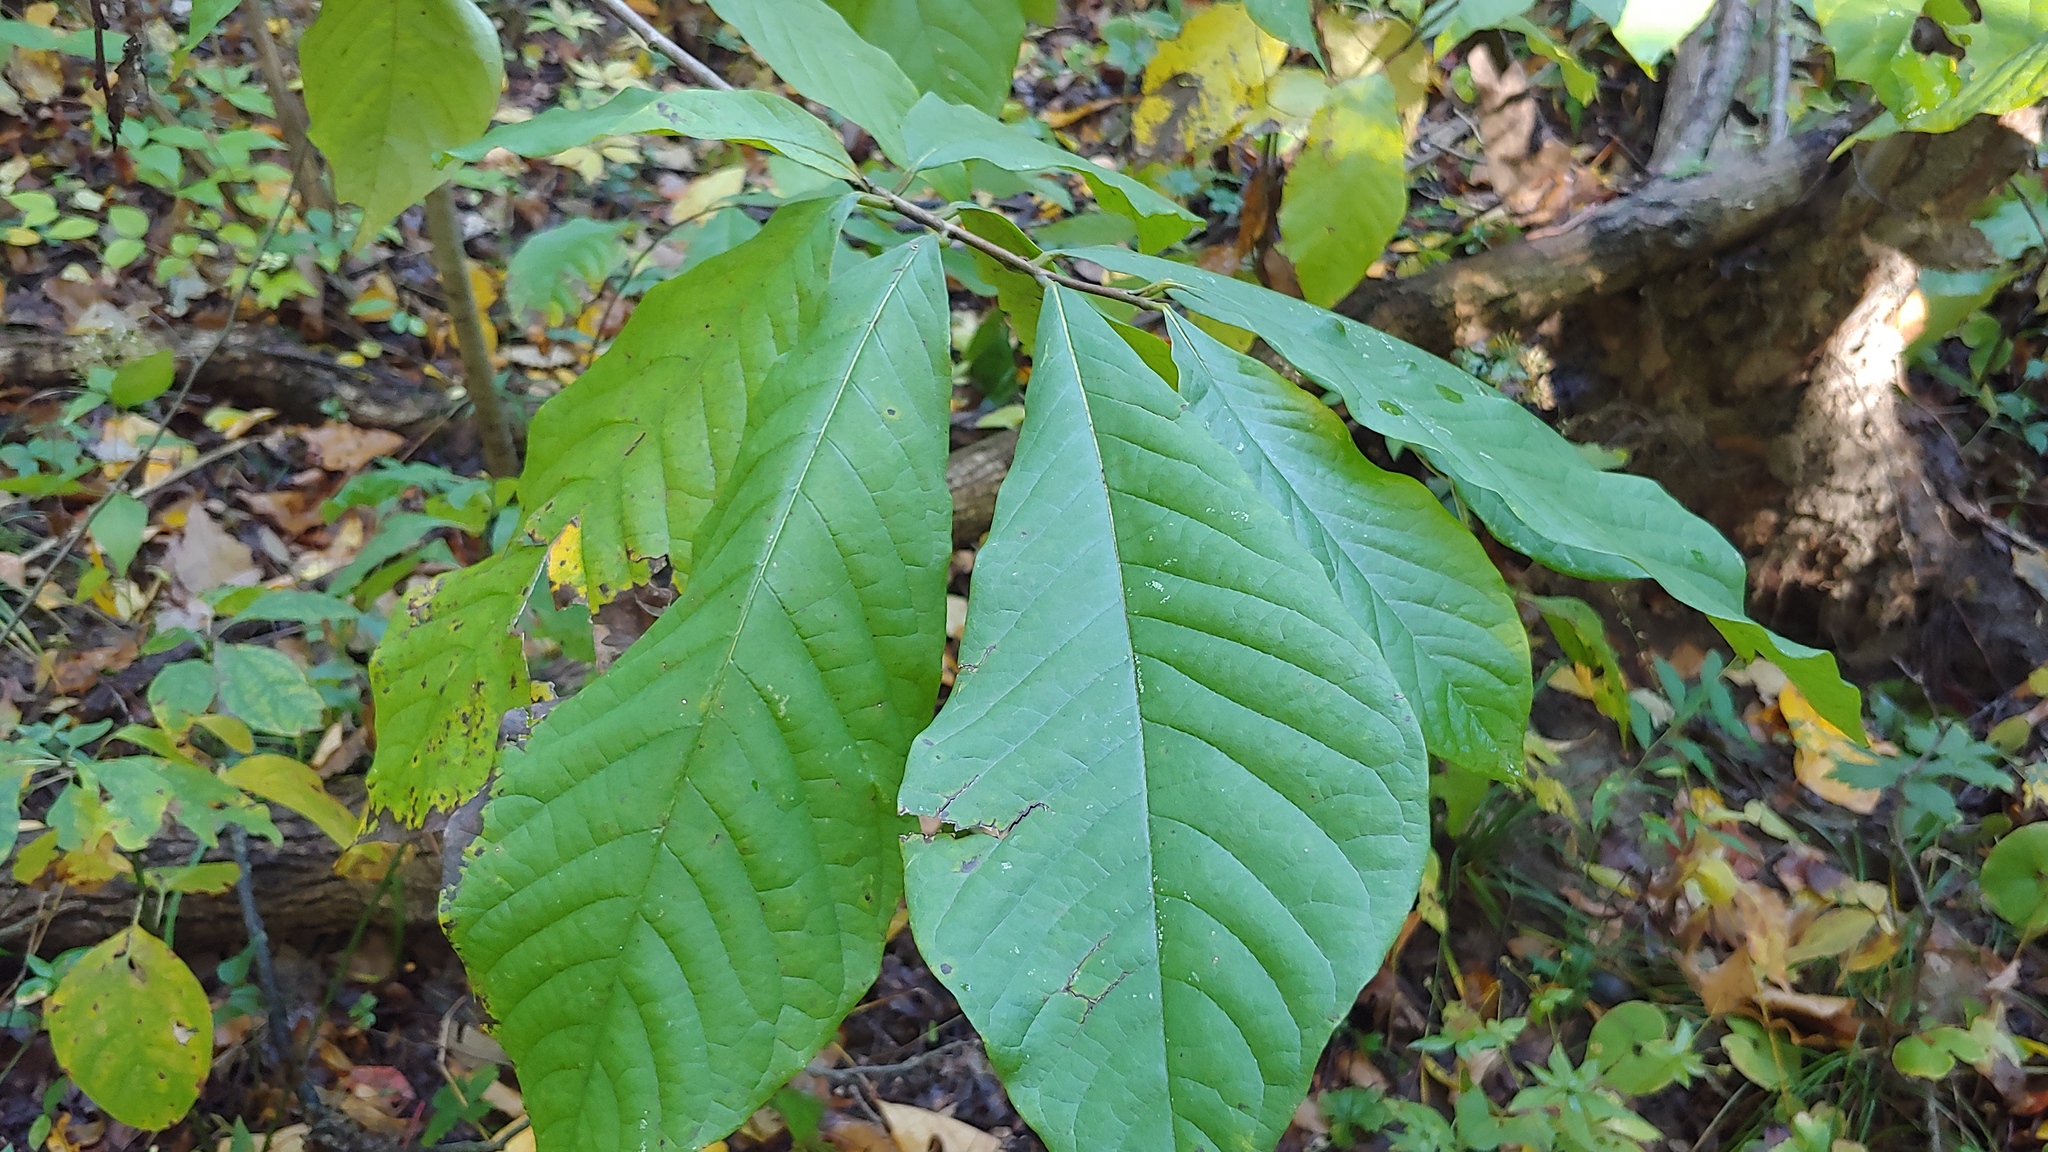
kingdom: Plantae
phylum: Tracheophyta
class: Magnoliopsida
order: Magnoliales
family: Annonaceae
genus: Asimina
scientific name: Asimina triloba
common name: Dog-banana
